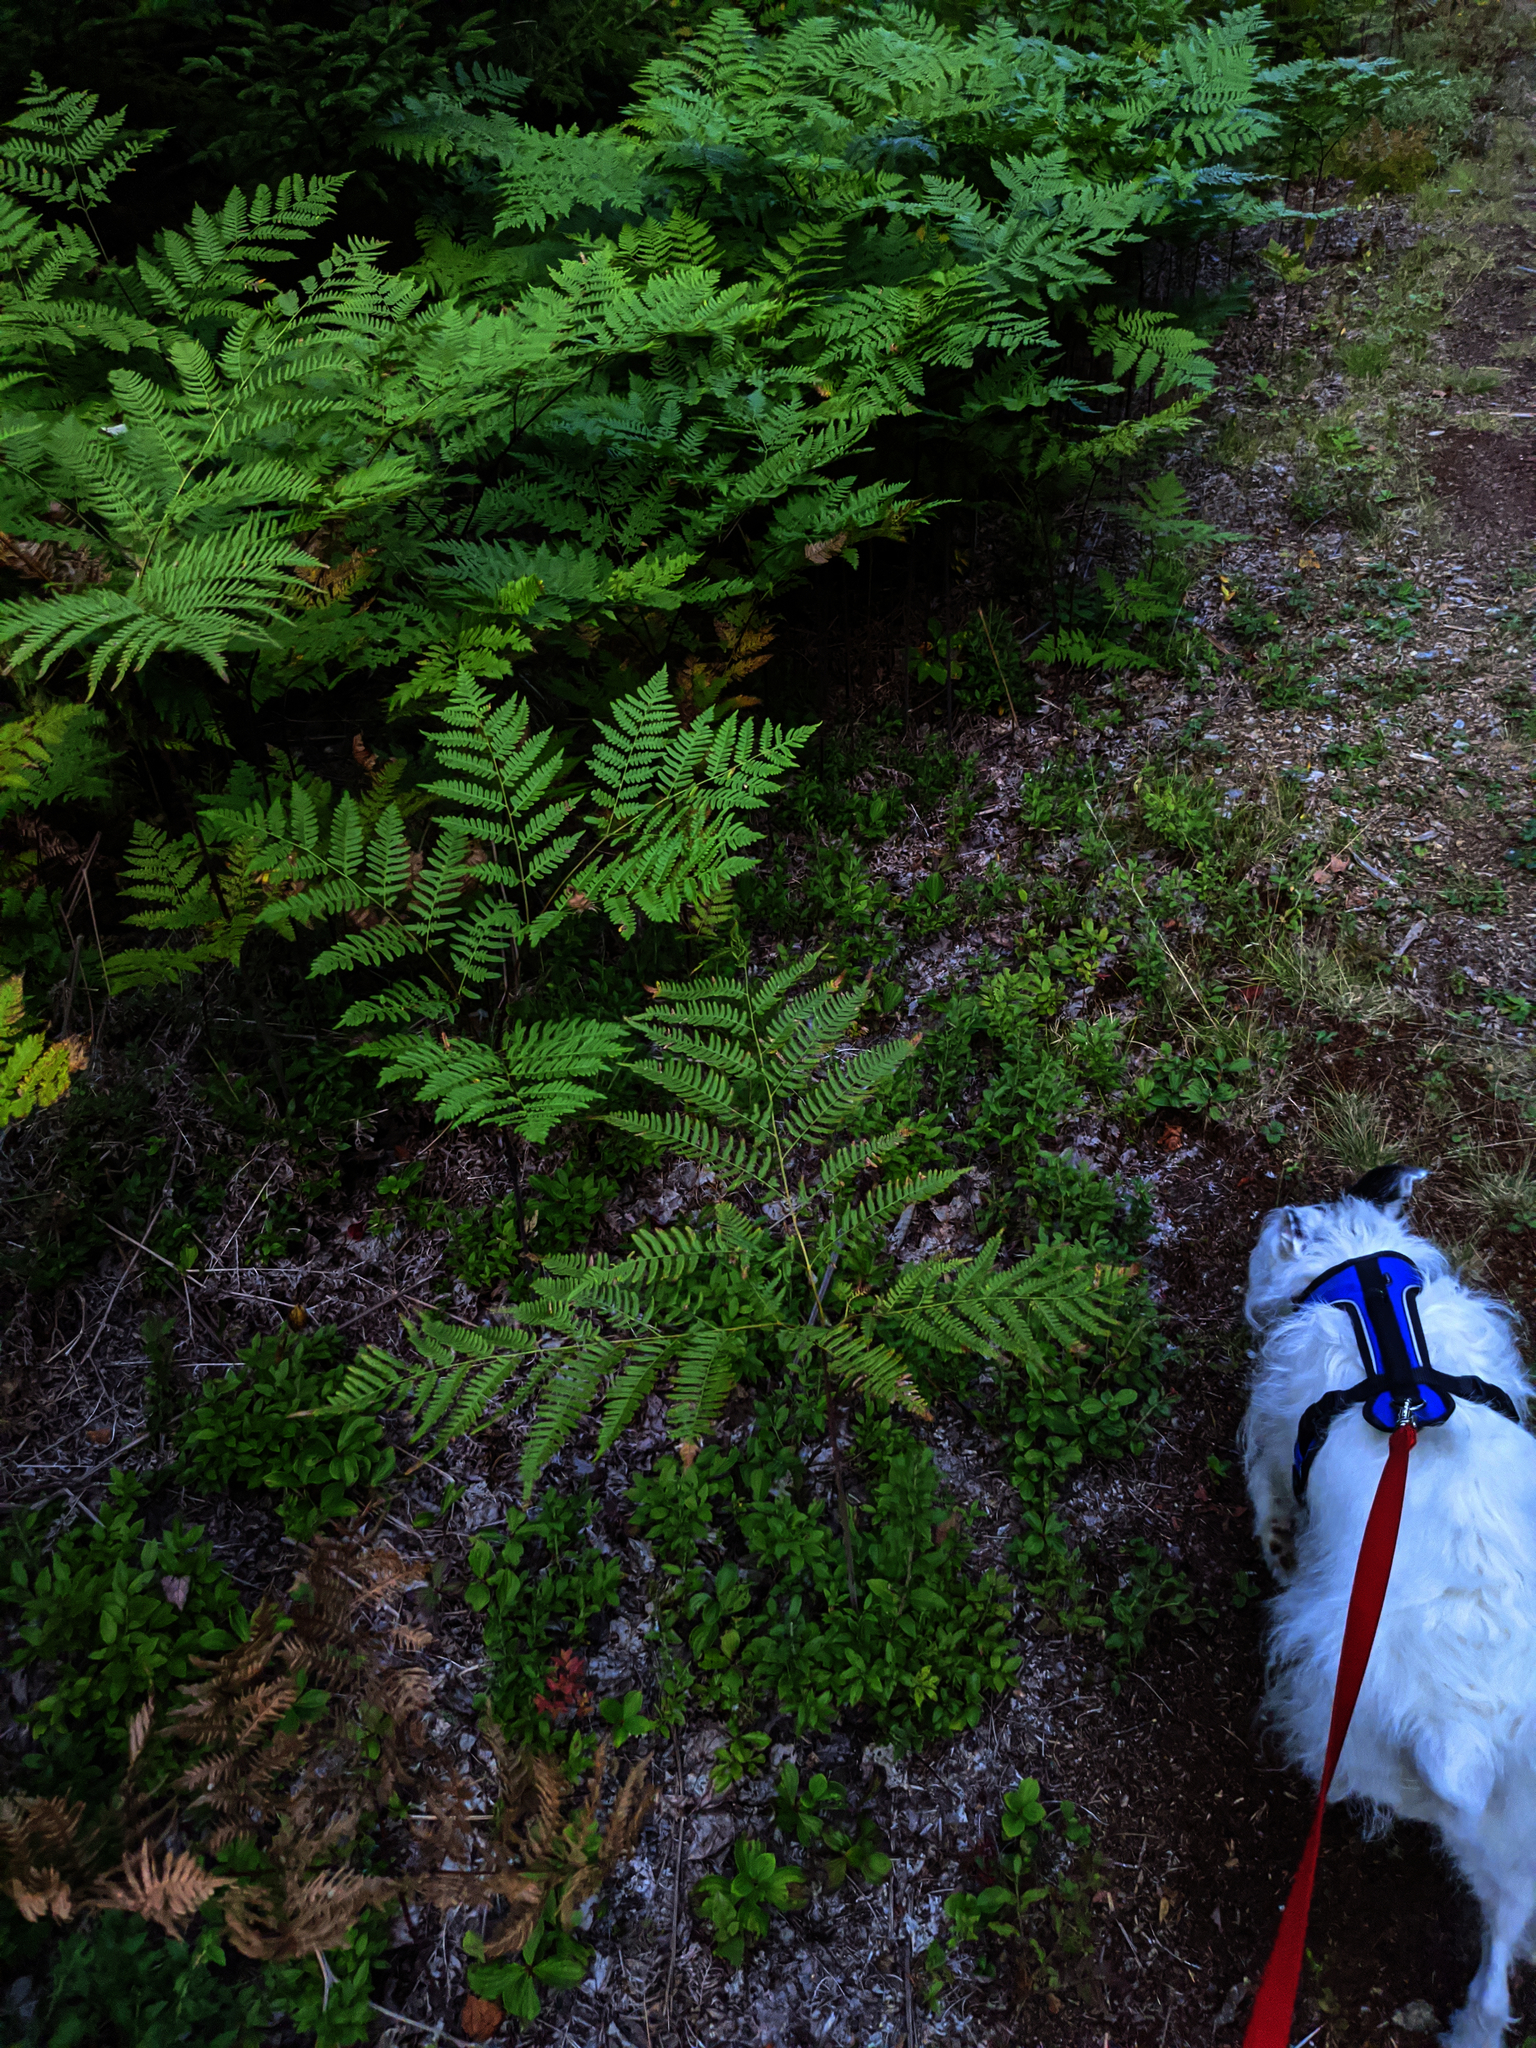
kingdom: Plantae
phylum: Tracheophyta
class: Polypodiopsida
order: Polypodiales
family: Dennstaedtiaceae
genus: Pteridium
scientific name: Pteridium aquilinum
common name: Bracken
